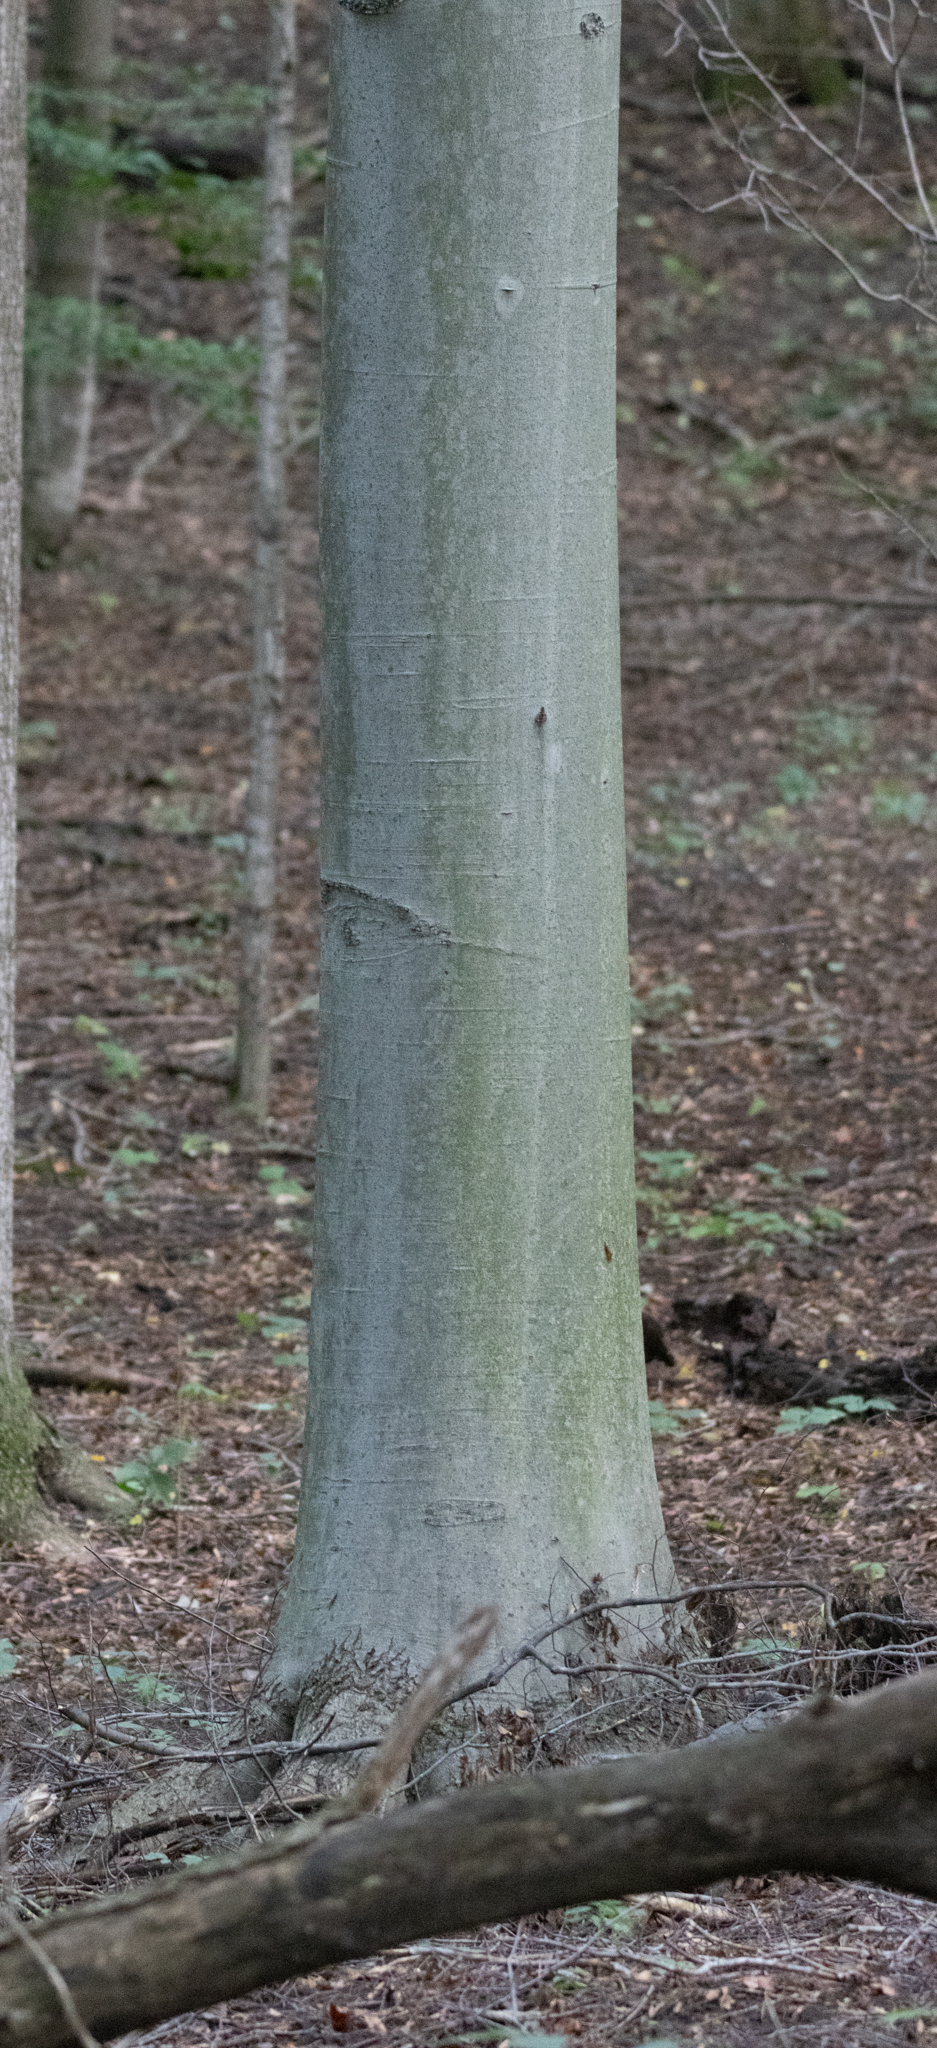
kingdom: Plantae
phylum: Tracheophyta
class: Magnoliopsida
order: Fagales
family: Fagaceae
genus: Fagus
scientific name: Fagus grandifolia
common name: American beech
